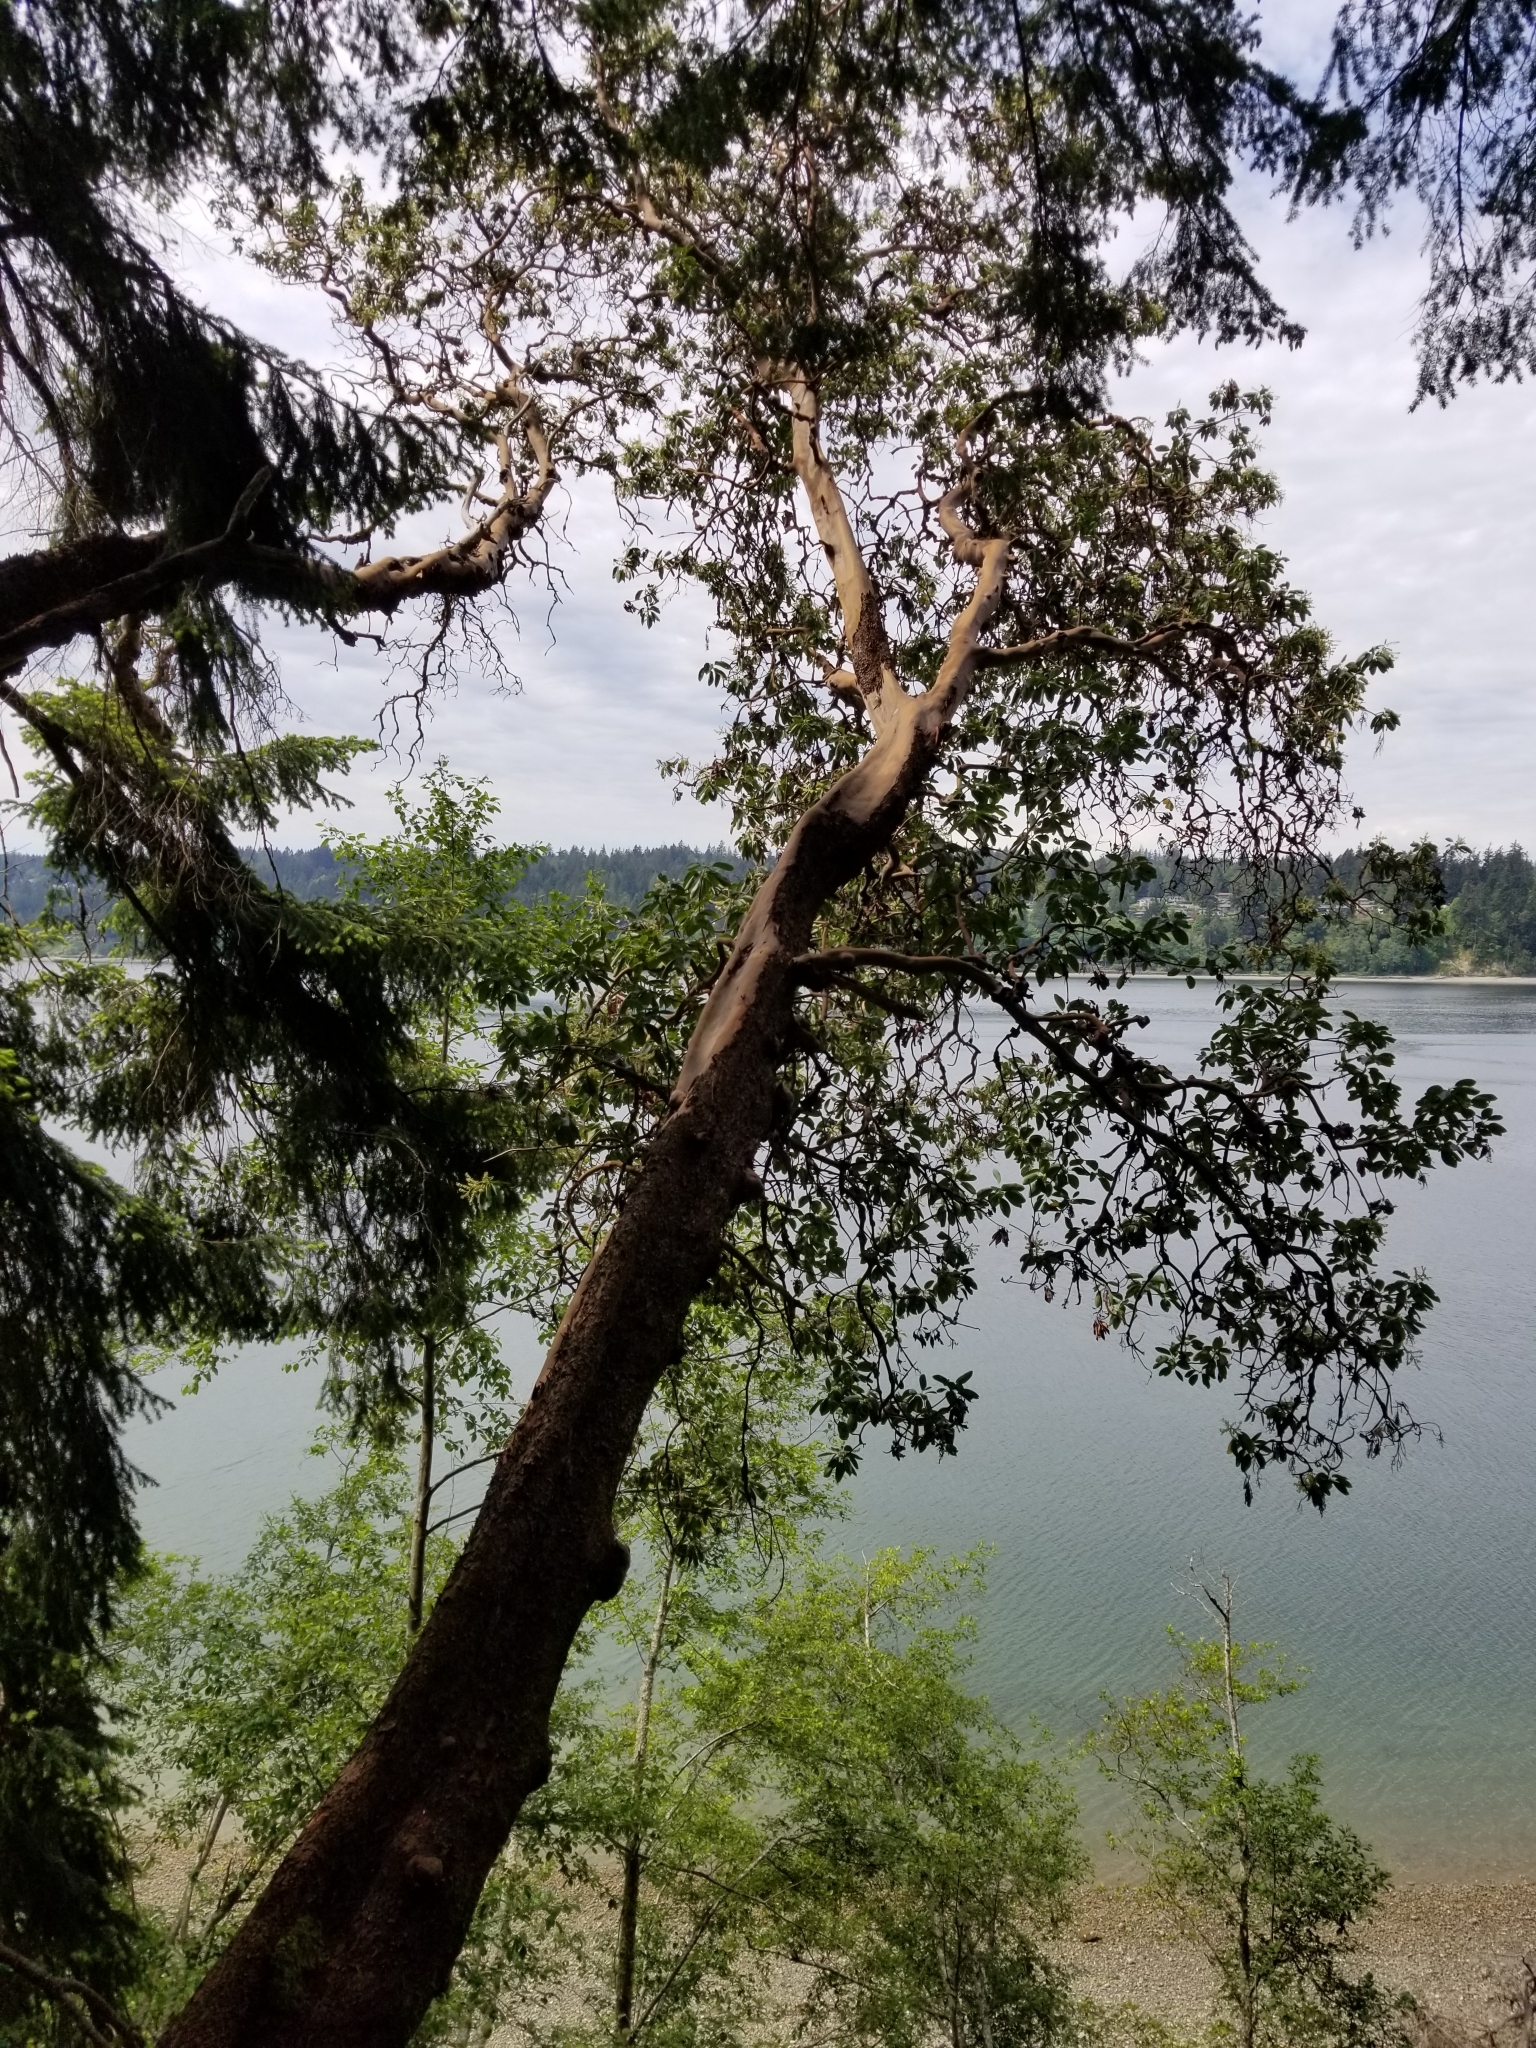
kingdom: Plantae
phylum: Tracheophyta
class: Magnoliopsida
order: Ericales
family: Ericaceae
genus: Arbutus
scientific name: Arbutus menziesii
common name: Pacific madrone
